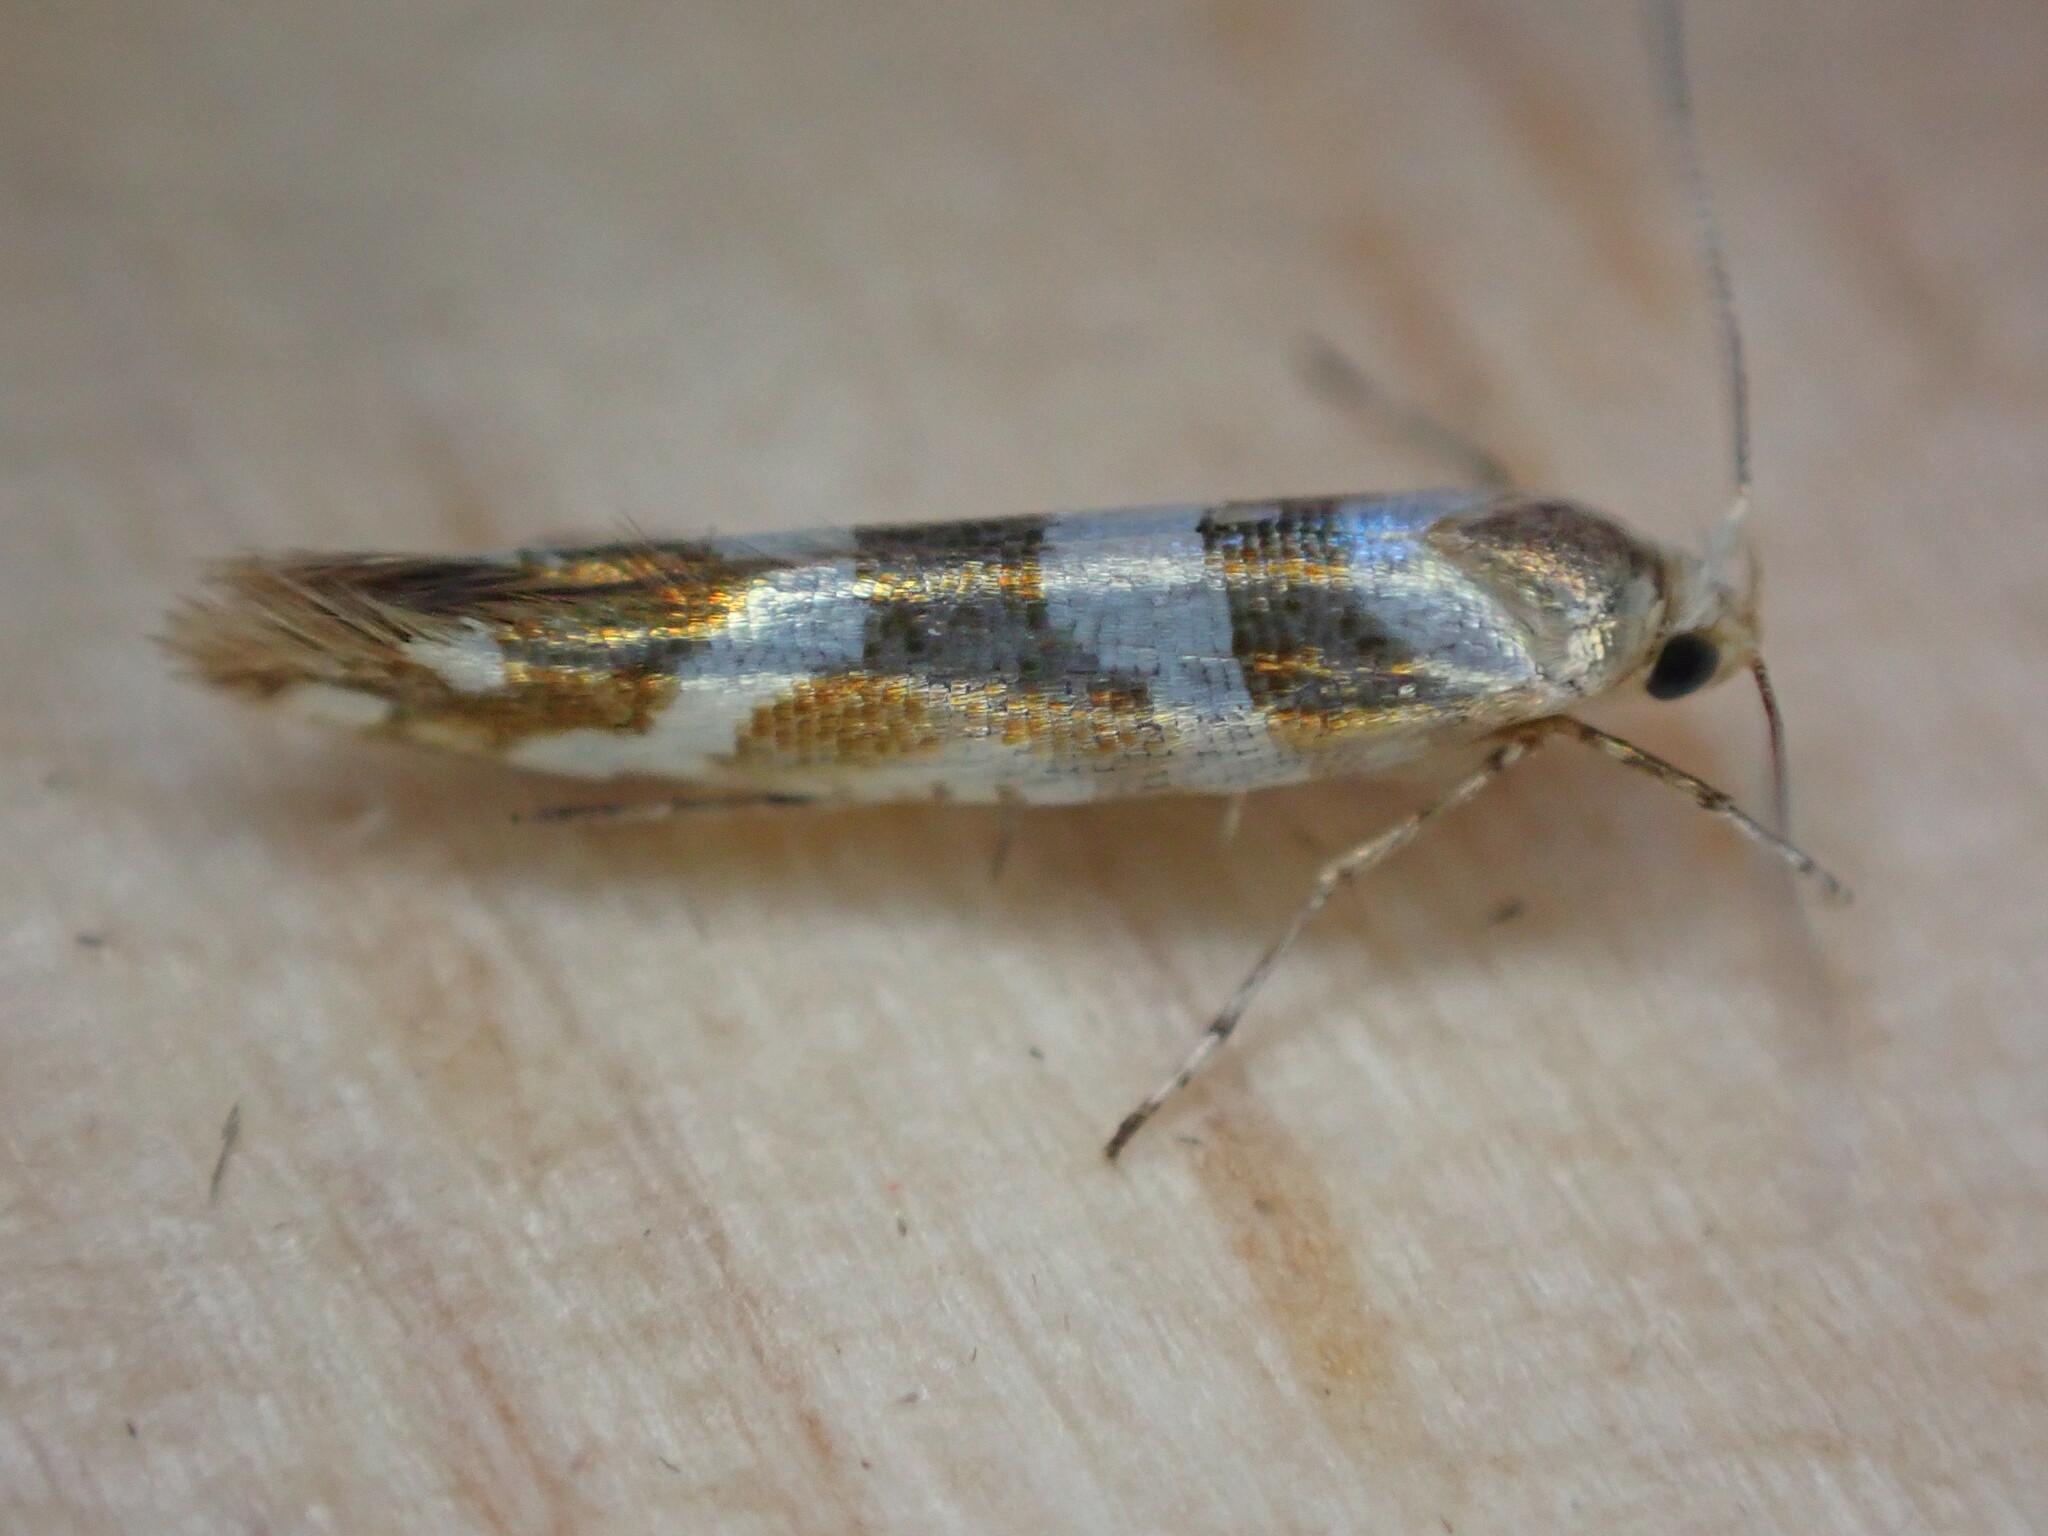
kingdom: Animalia
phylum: Arthropoda
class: Insecta
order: Lepidoptera
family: Argyresthiidae
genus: Argyresthia
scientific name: Argyresthia goedartella
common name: Golden argent
